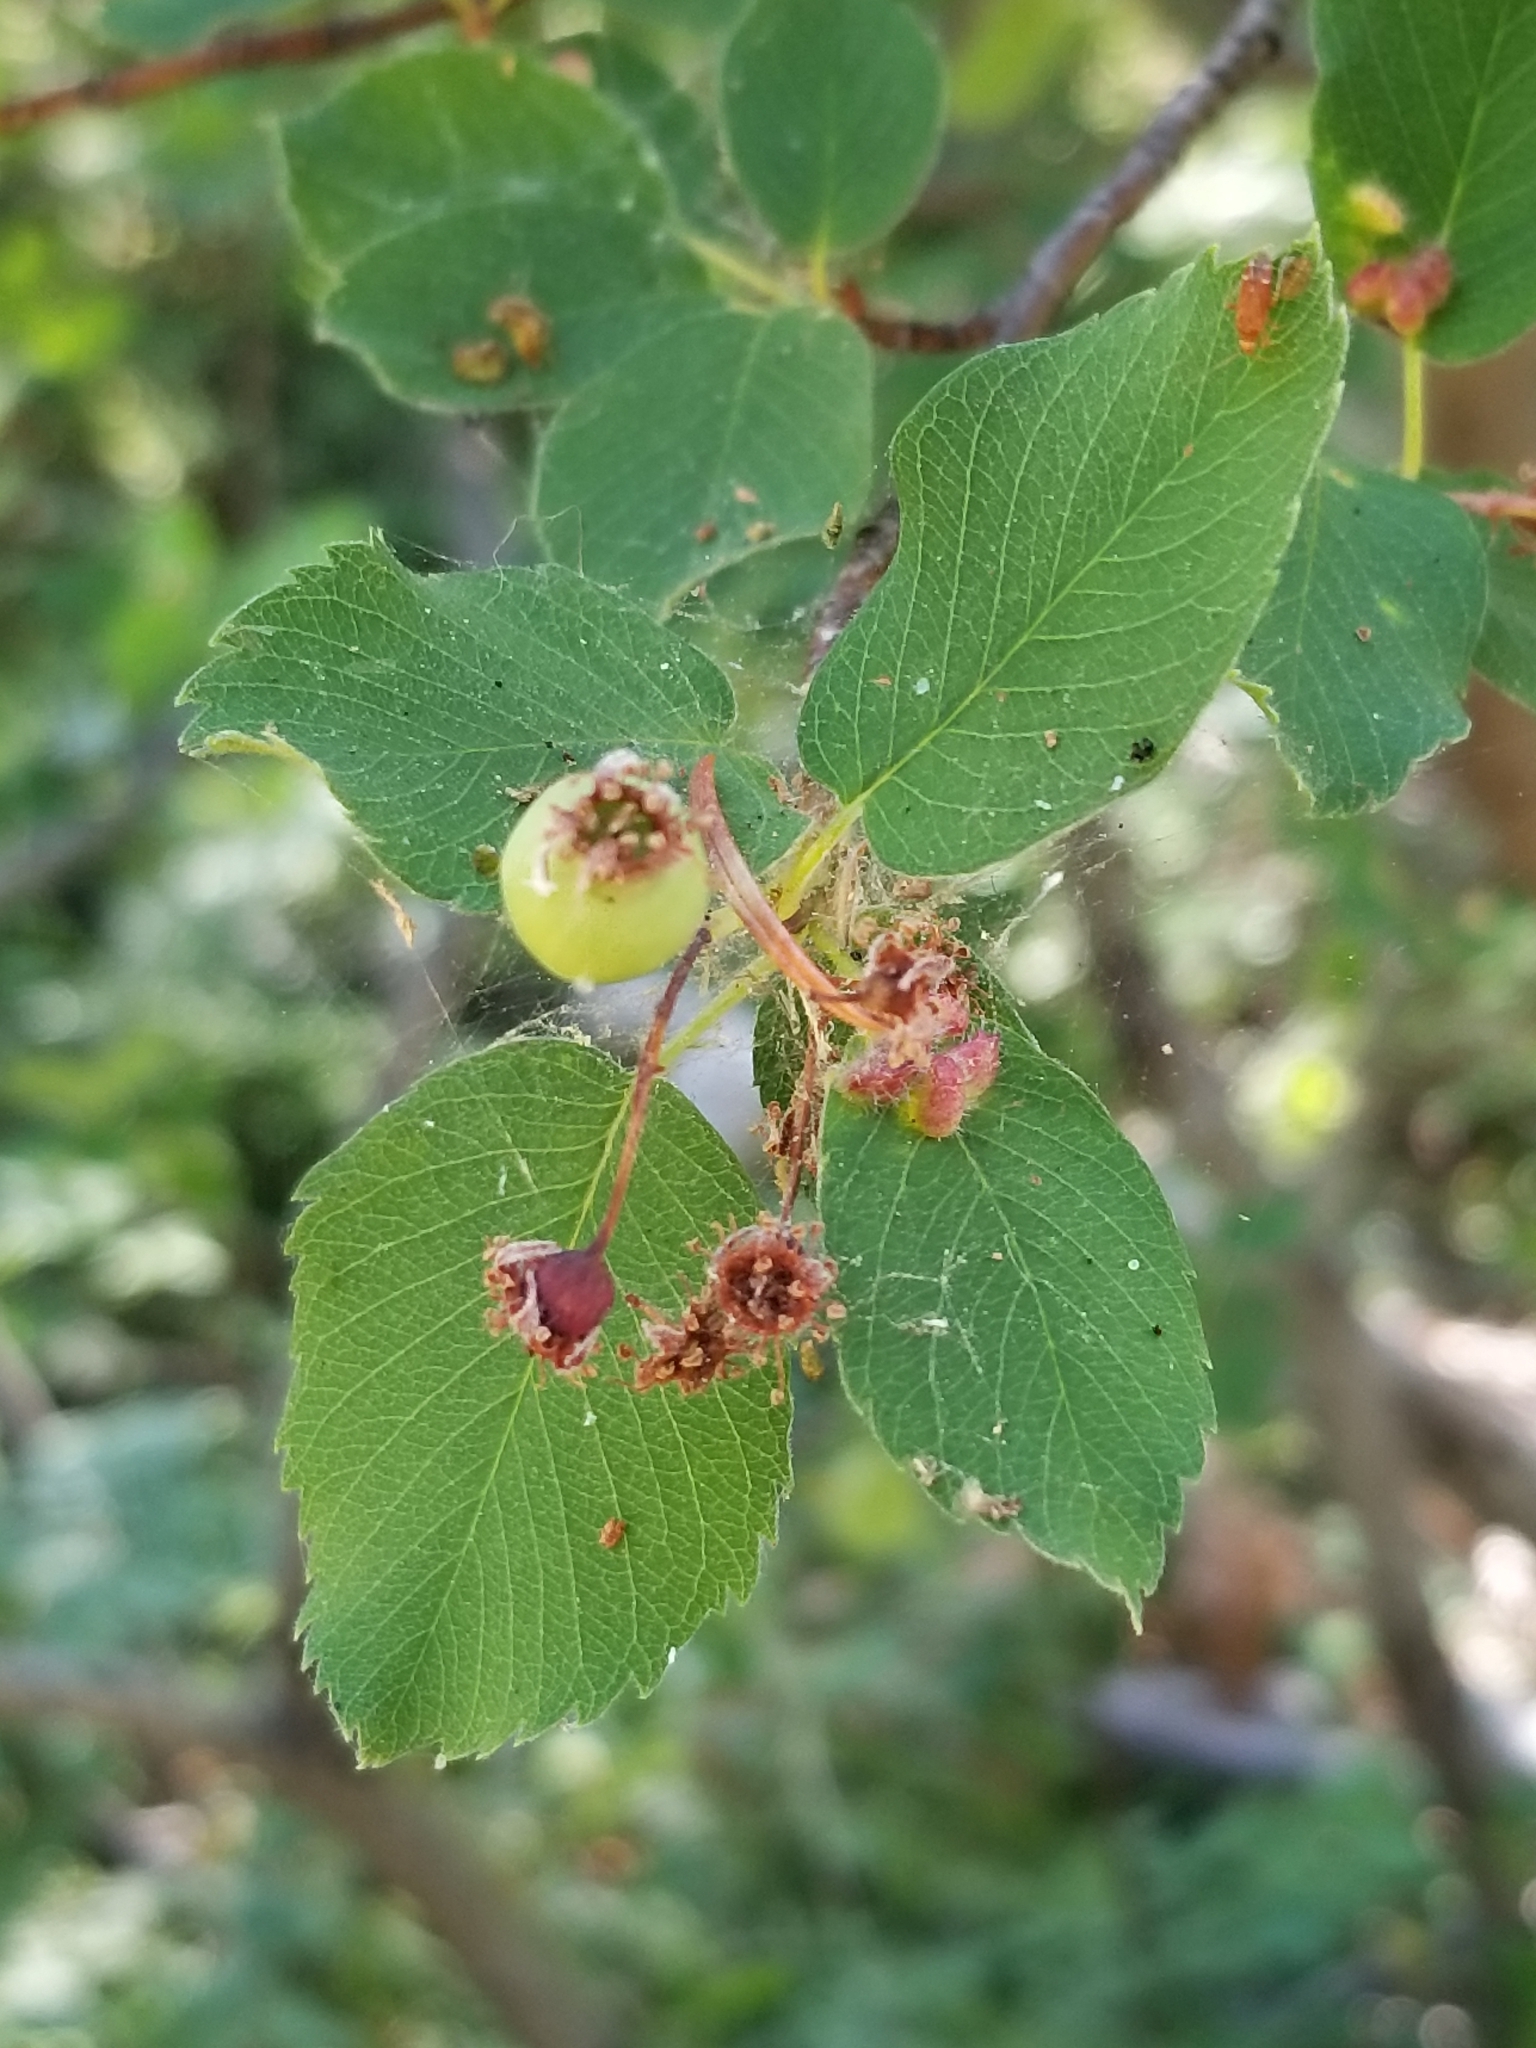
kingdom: Plantae
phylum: Tracheophyta
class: Magnoliopsida
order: Rosales
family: Rosaceae
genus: Amelanchier
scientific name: Amelanchier alnifolia
